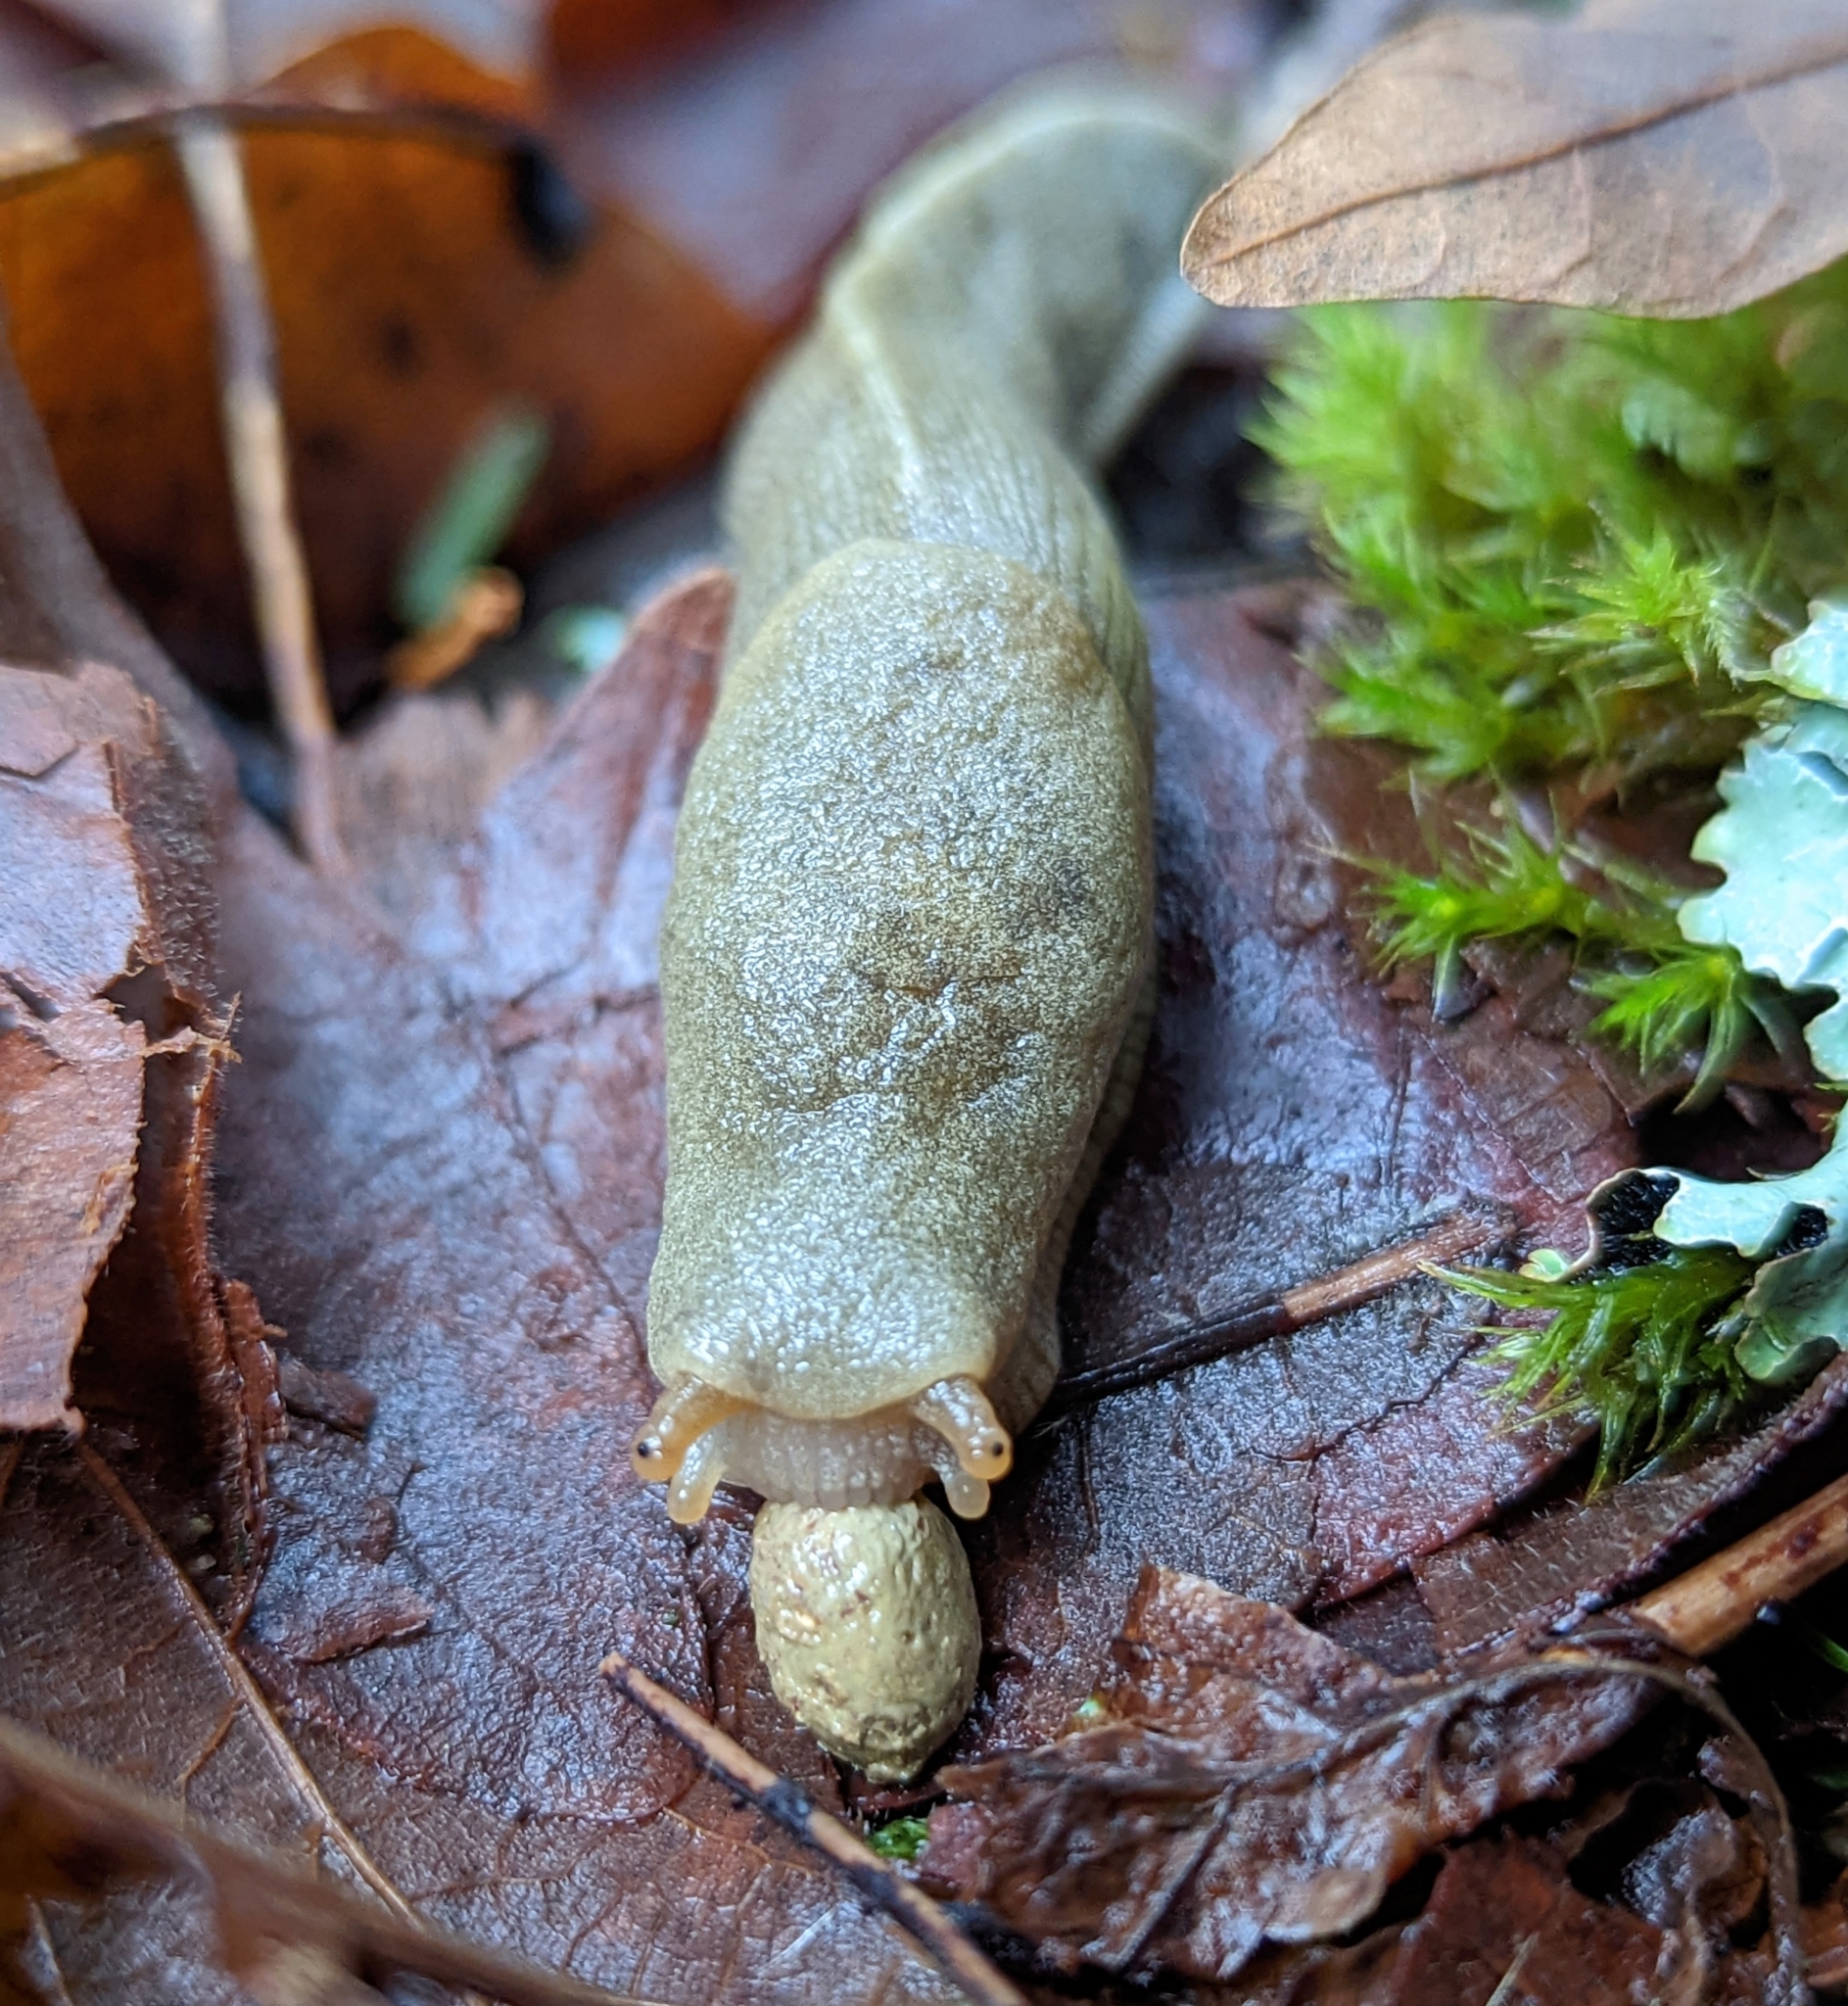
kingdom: Animalia
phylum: Mollusca
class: Gastropoda
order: Stylommatophora
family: Ariolimacidae
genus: Ariolimax
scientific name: Ariolimax columbianus
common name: Pacific banana slug
